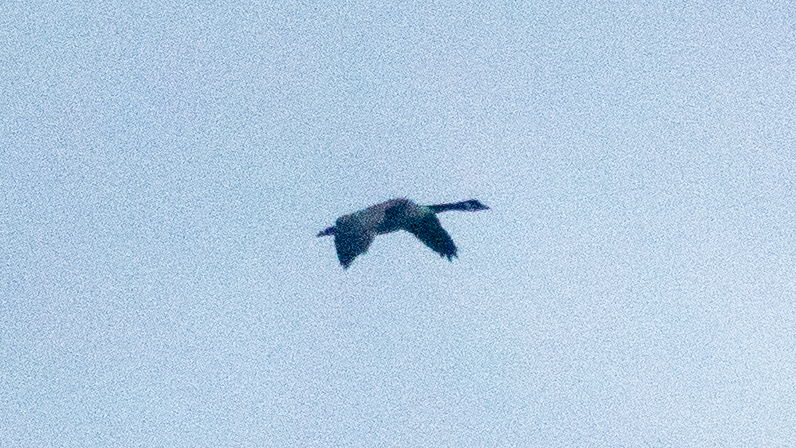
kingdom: Animalia
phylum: Chordata
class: Aves
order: Anseriformes
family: Anatidae
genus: Branta
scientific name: Branta canadensis
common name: Canada goose
